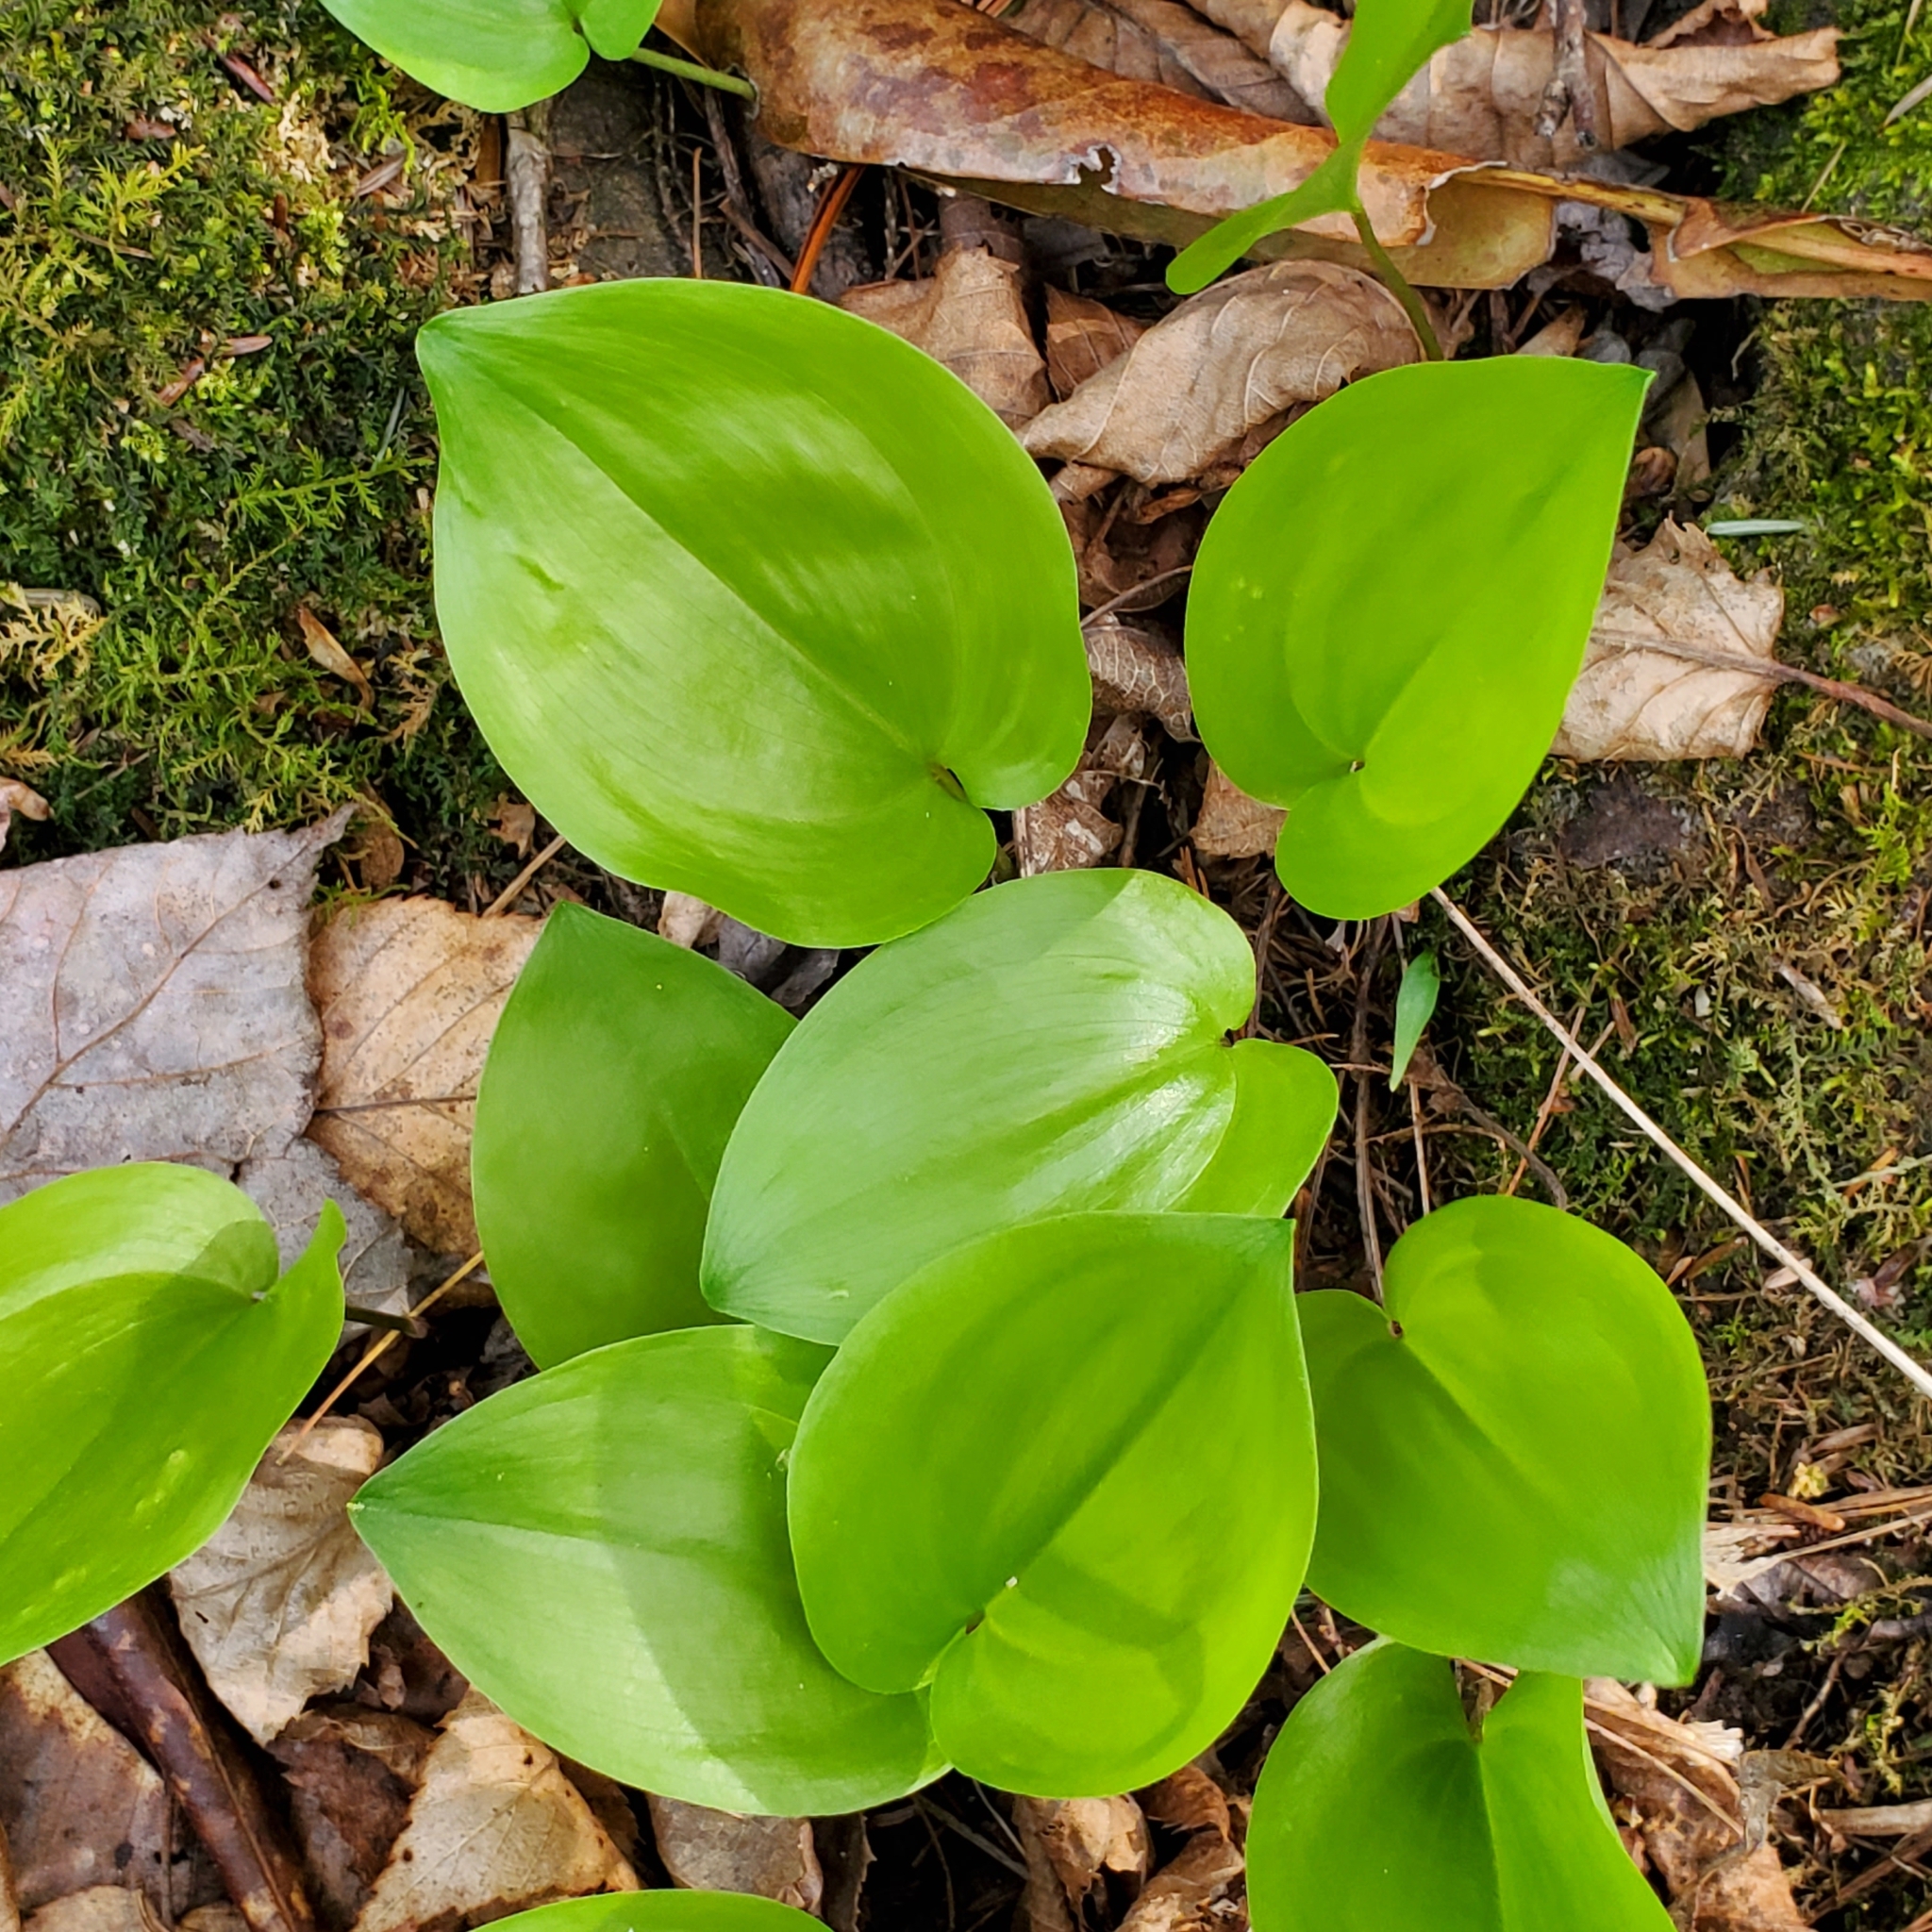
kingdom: Plantae
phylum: Tracheophyta
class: Liliopsida
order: Asparagales
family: Asparagaceae
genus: Maianthemum
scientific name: Maianthemum canadense
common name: False lily-of-the-valley
